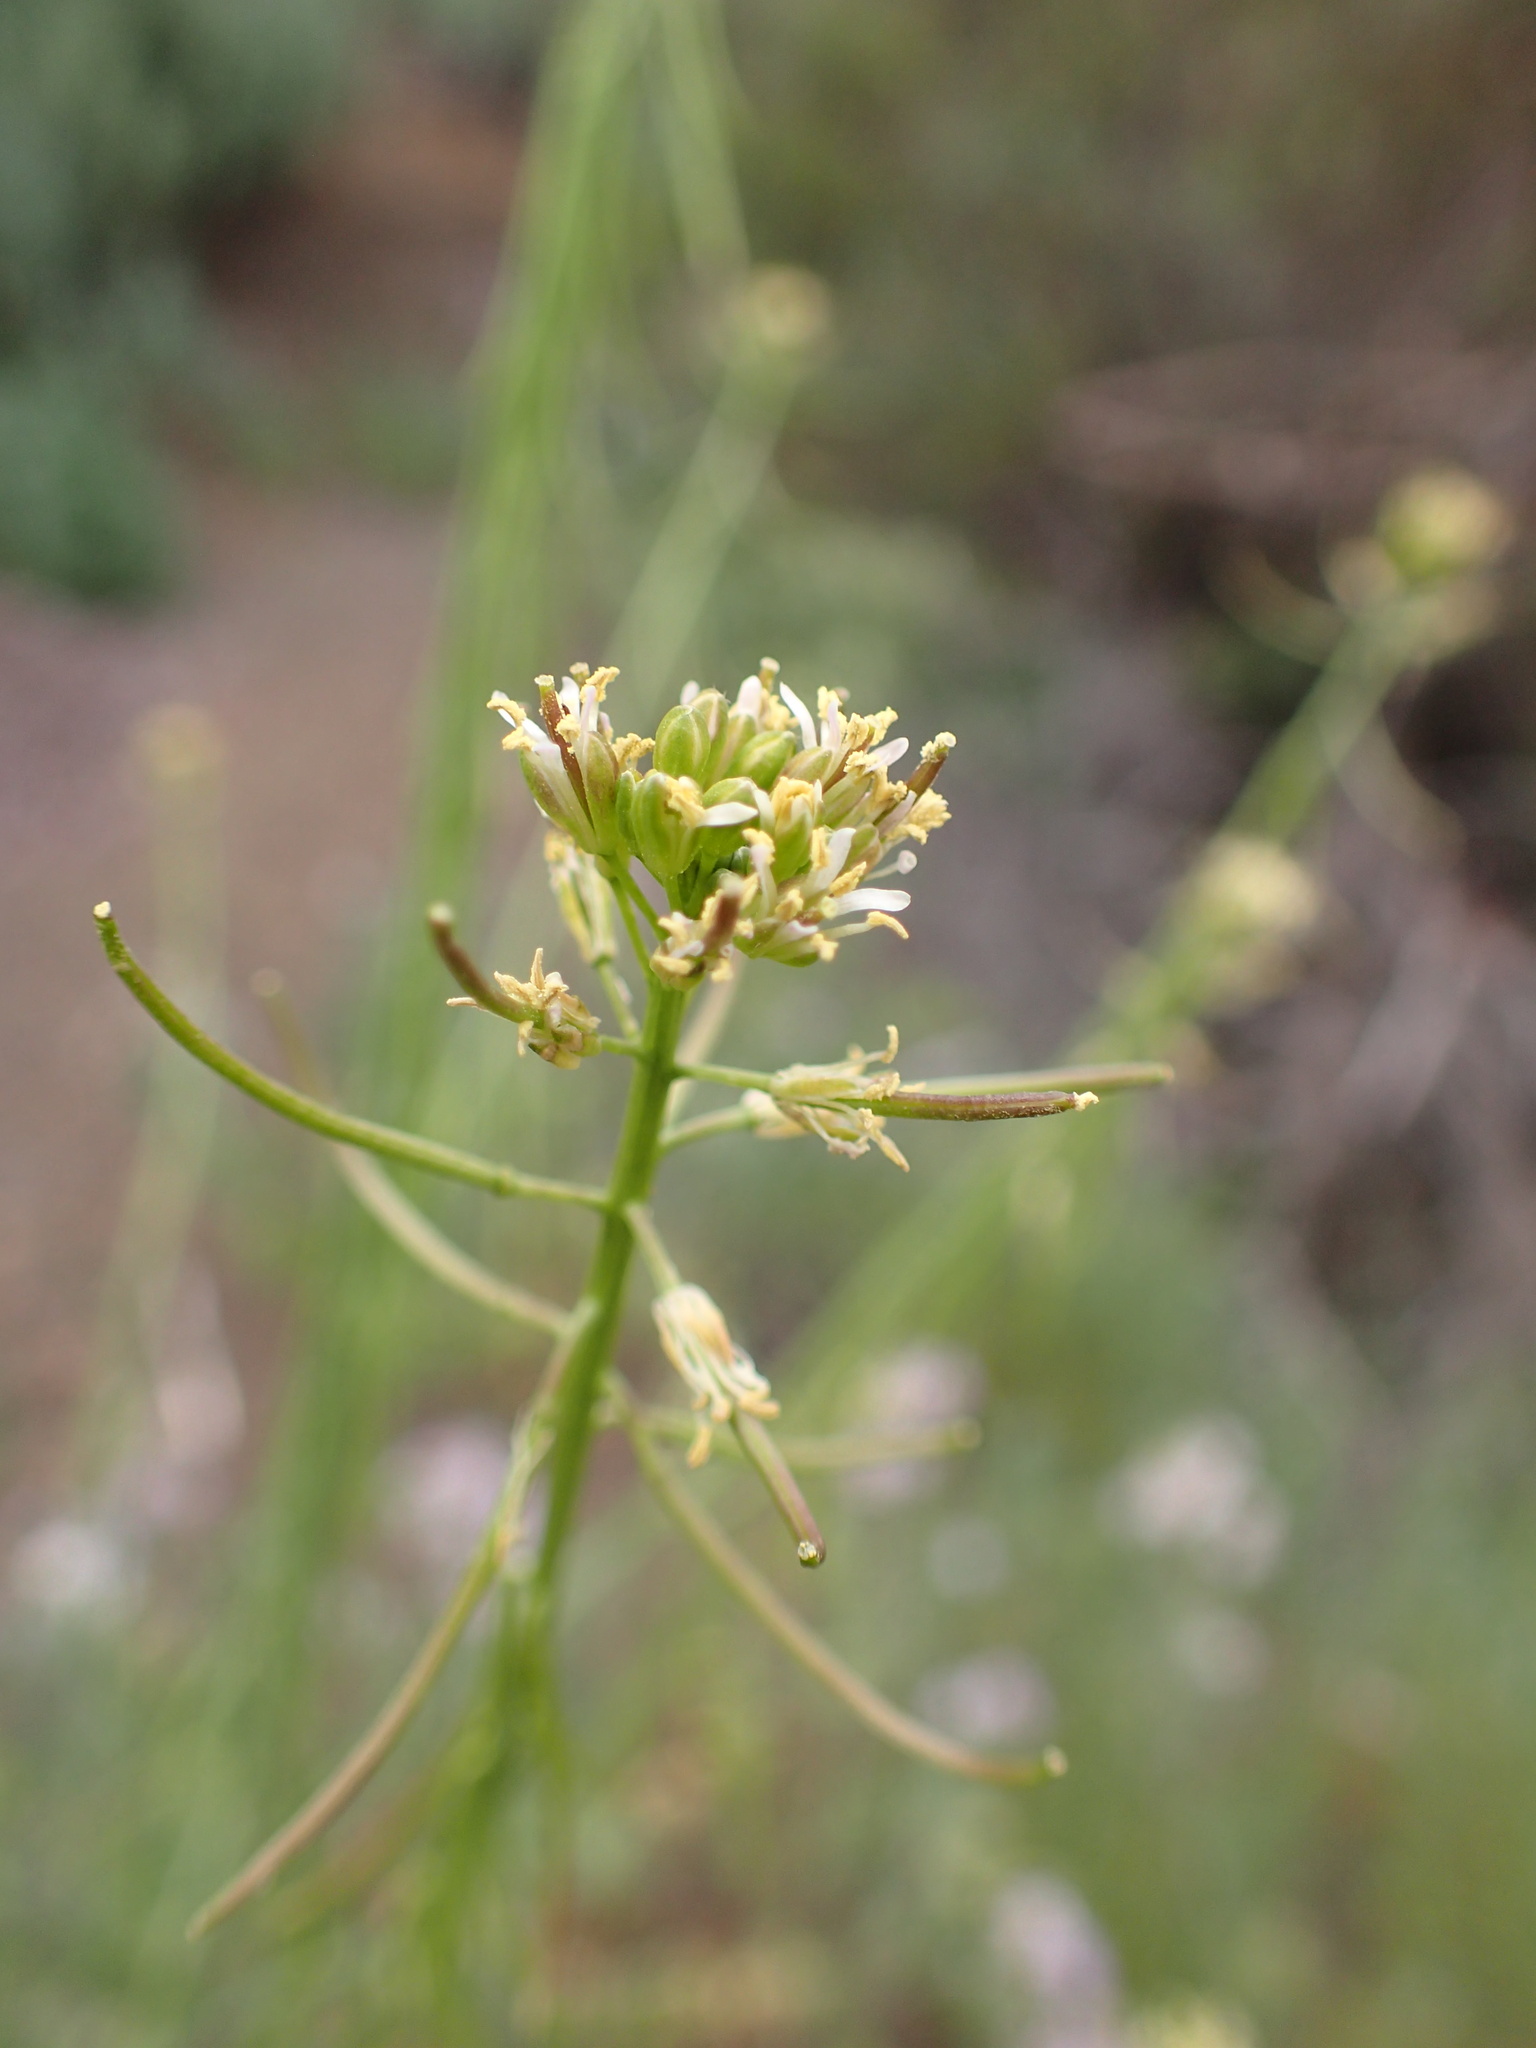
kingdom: Plantae
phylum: Tracheophyta
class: Magnoliopsida
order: Brassicales
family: Brassicaceae
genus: Streptanthus
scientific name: Streptanthus lasiophyllus
